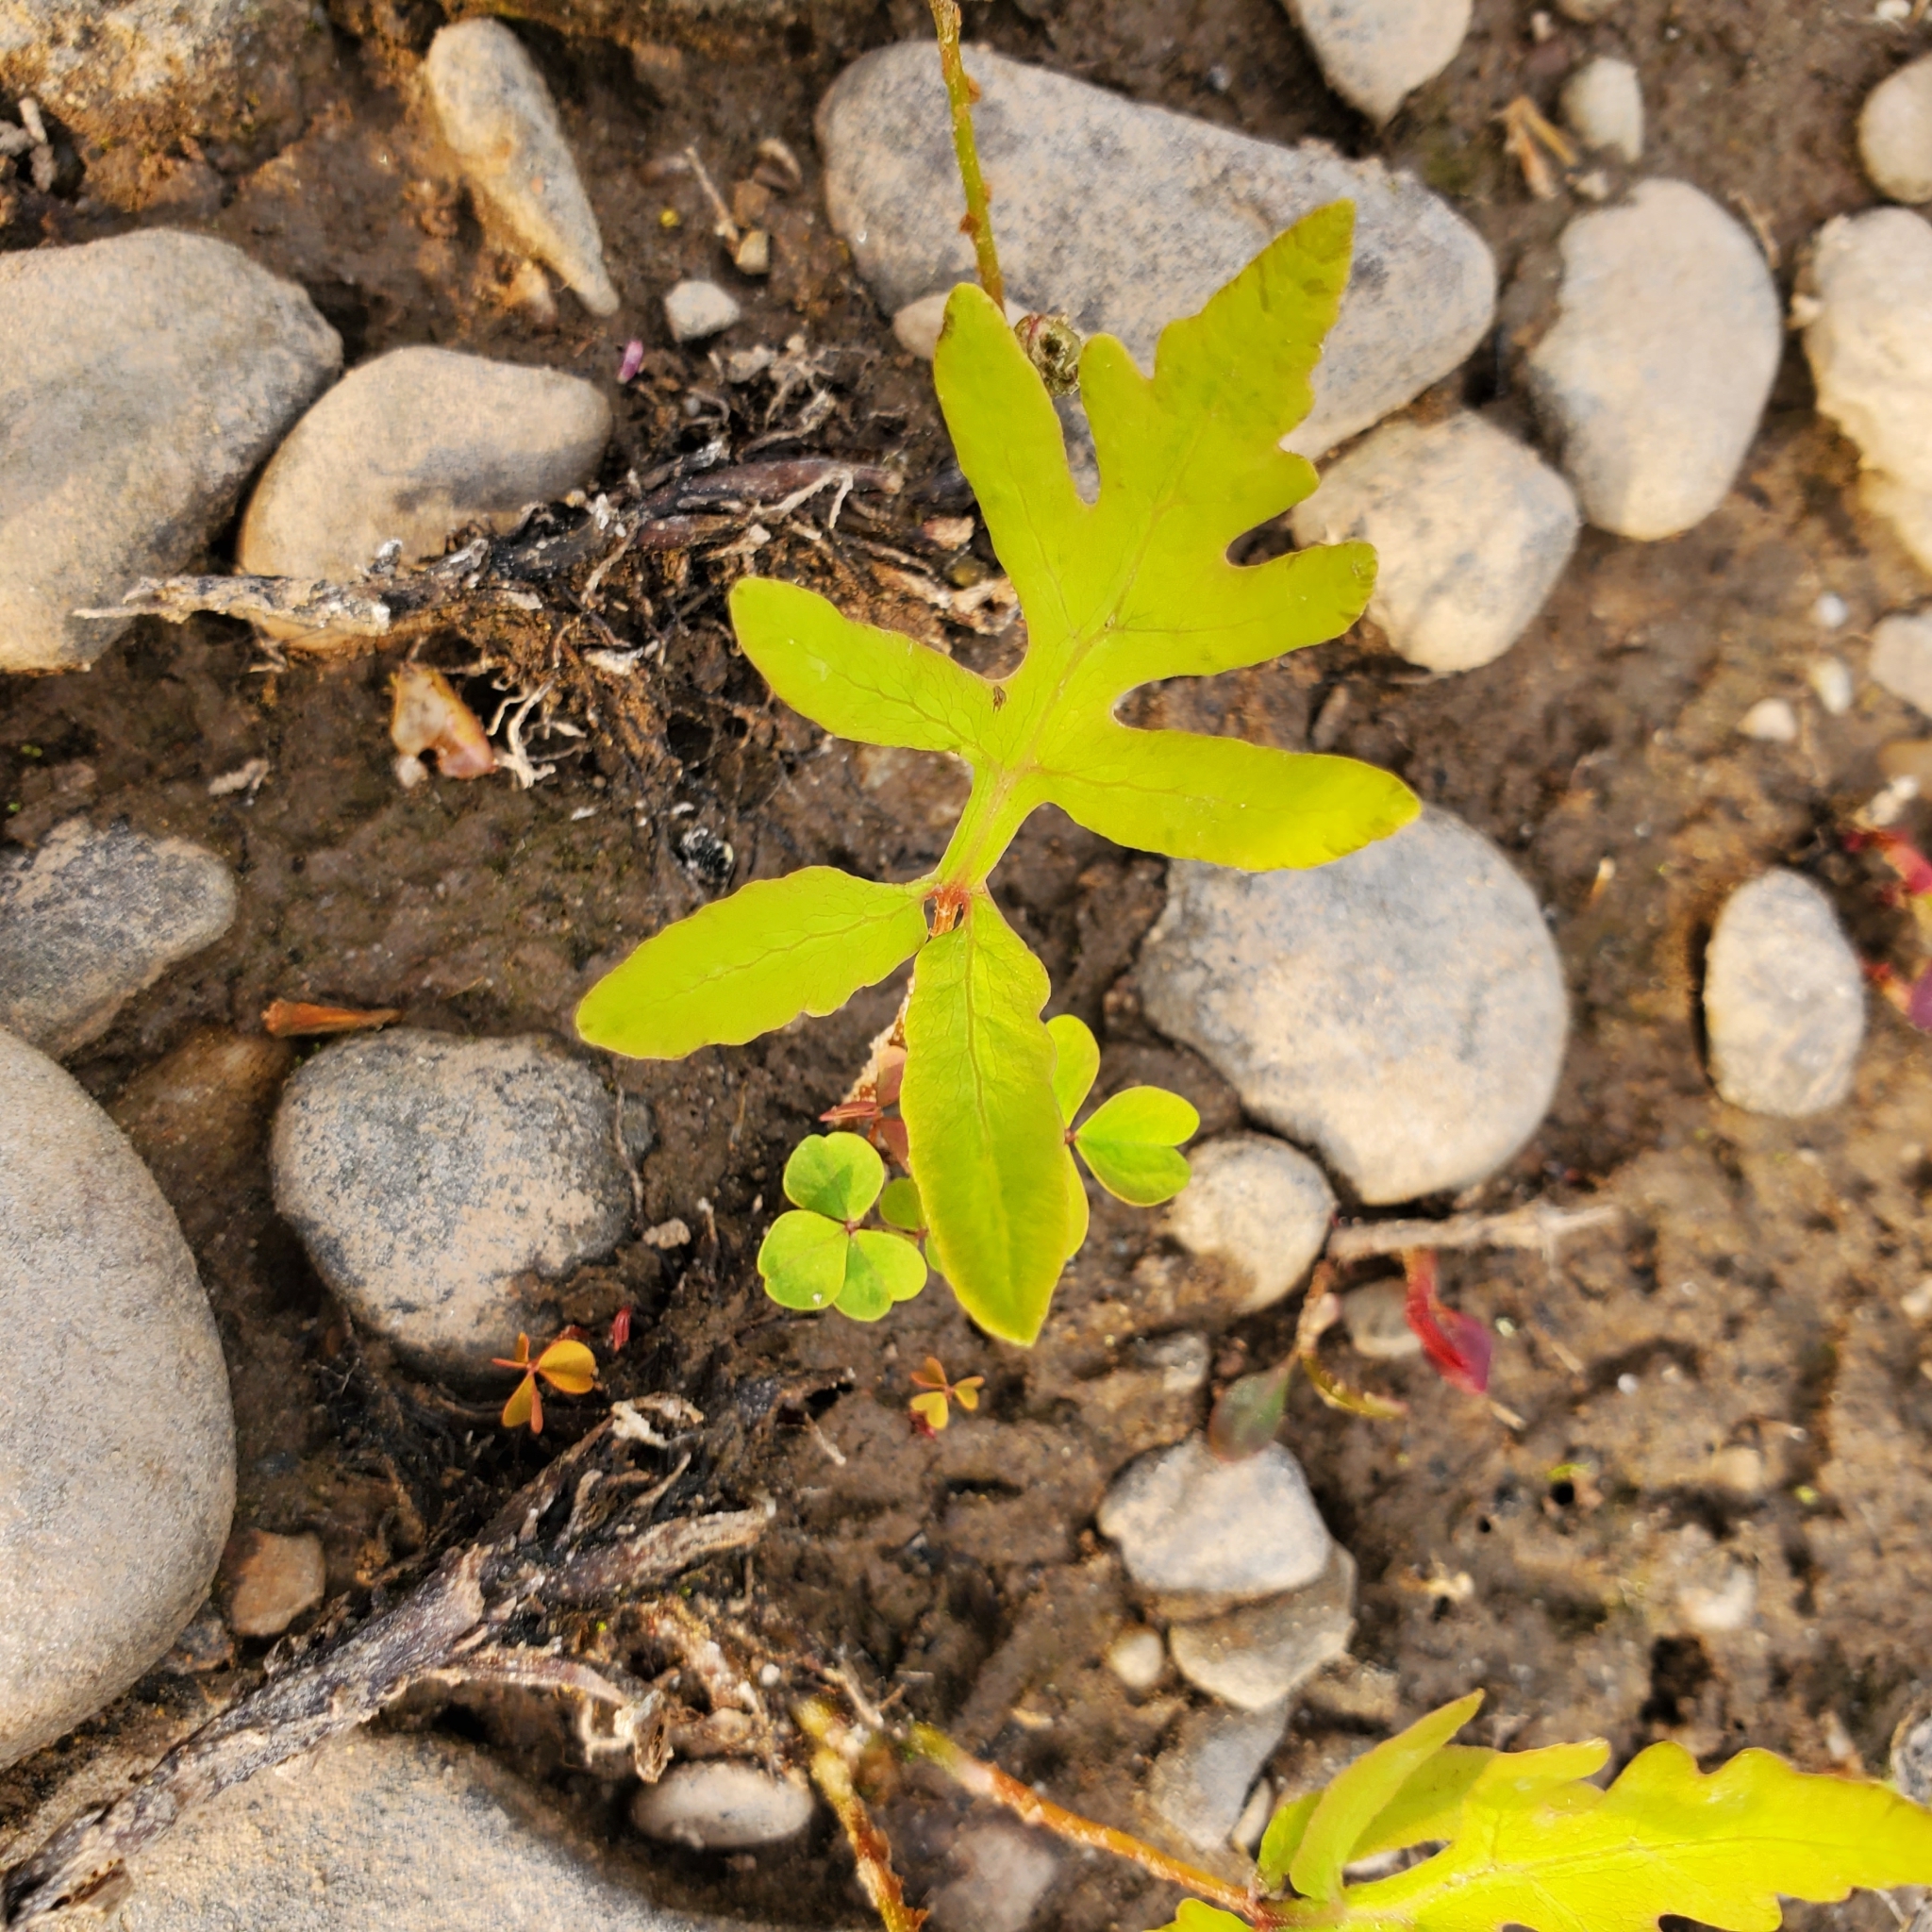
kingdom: Plantae
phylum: Tracheophyta
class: Polypodiopsida
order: Polypodiales
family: Onocleaceae
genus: Onoclea
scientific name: Onoclea sensibilis
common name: Sensitive fern
